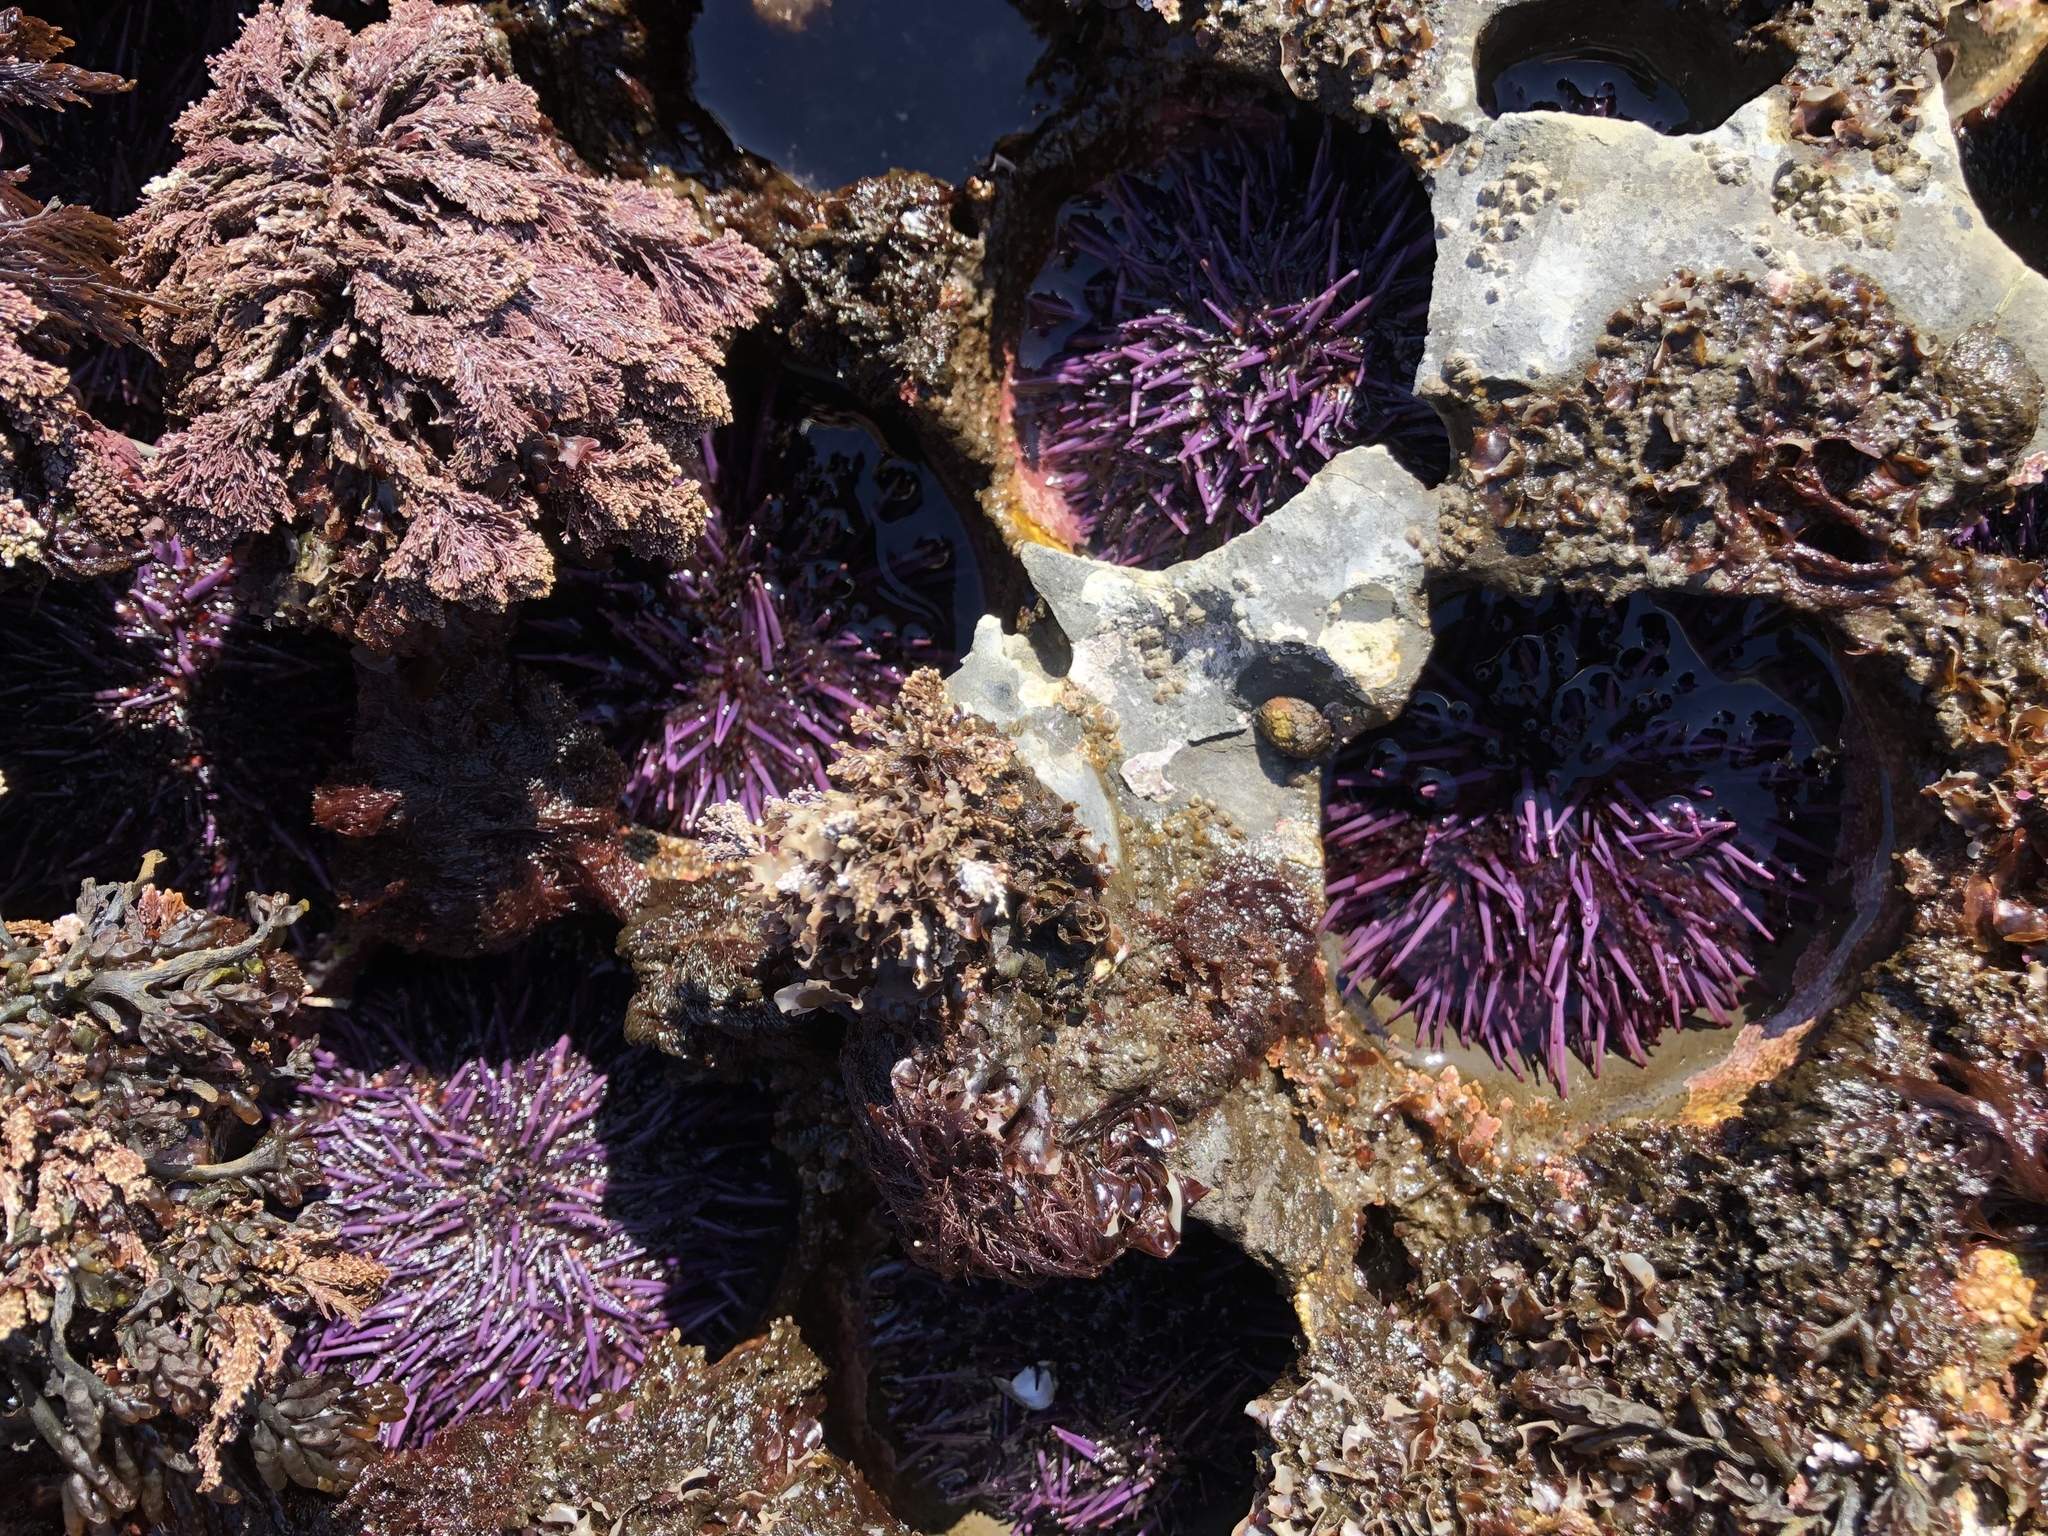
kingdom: Animalia
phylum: Echinodermata
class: Echinoidea
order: Camarodonta
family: Strongylocentrotidae
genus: Strongylocentrotus
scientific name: Strongylocentrotus purpuratus
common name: Purple sea urchin
